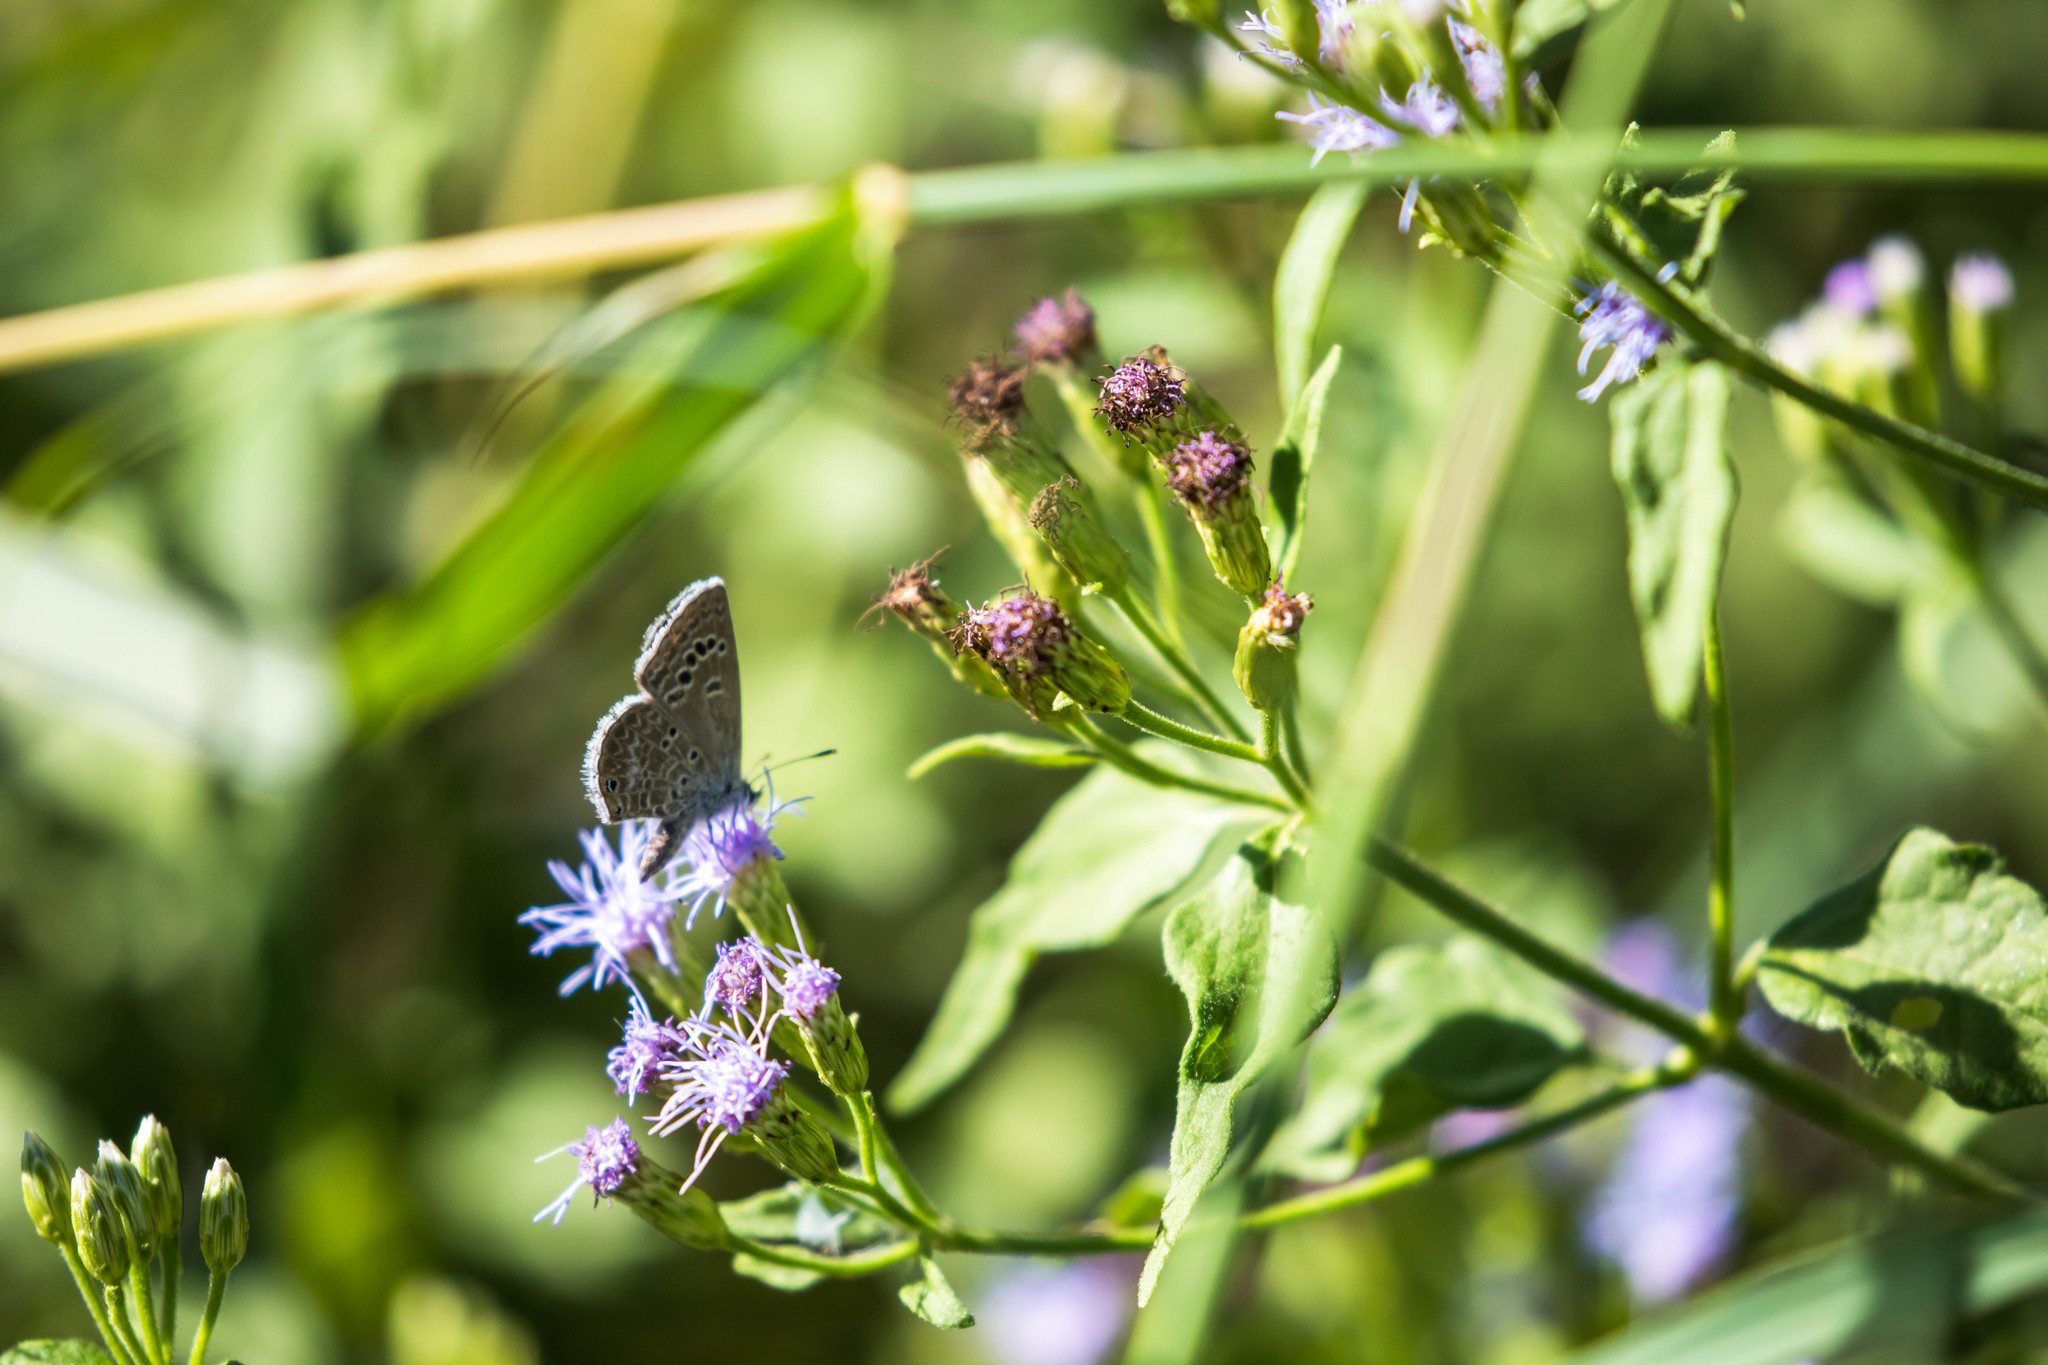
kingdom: Animalia
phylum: Arthropoda
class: Insecta
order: Lepidoptera
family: Lycaenidae
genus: Echinargus
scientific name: Echinargus isola
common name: Reakirt's blue
